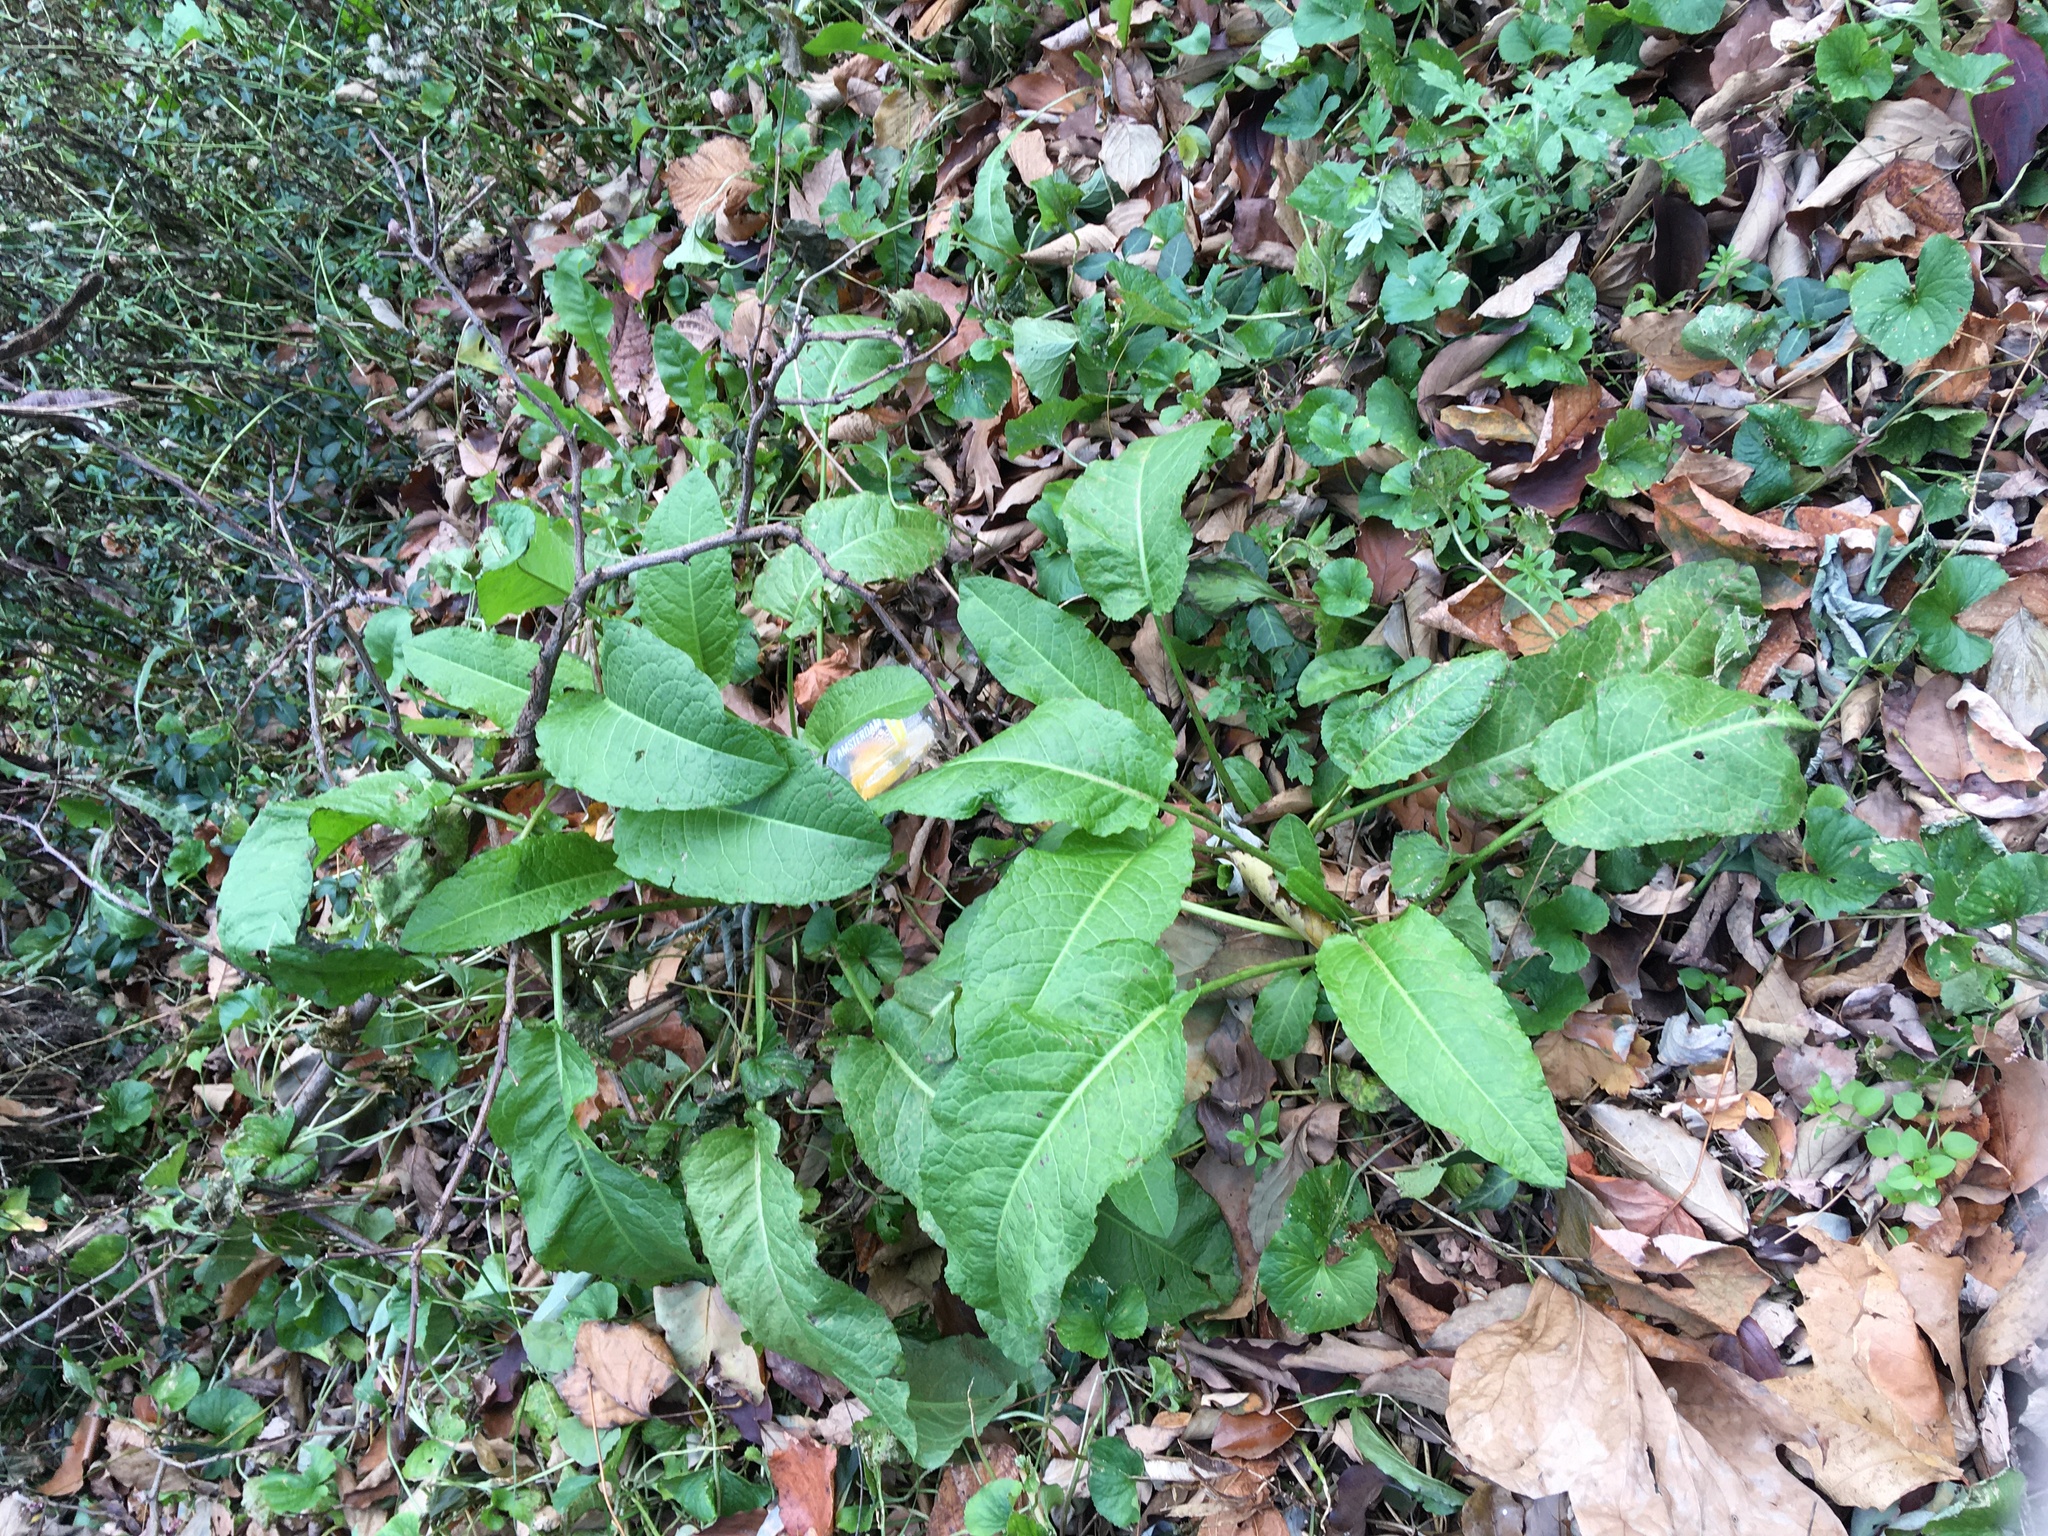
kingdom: Plantae
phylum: Tracheophyta
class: Magnoliopsida
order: Caryophyllales
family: Polygonaceae
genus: Rumex
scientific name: Rumex obtusifolius
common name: Bitter dock
